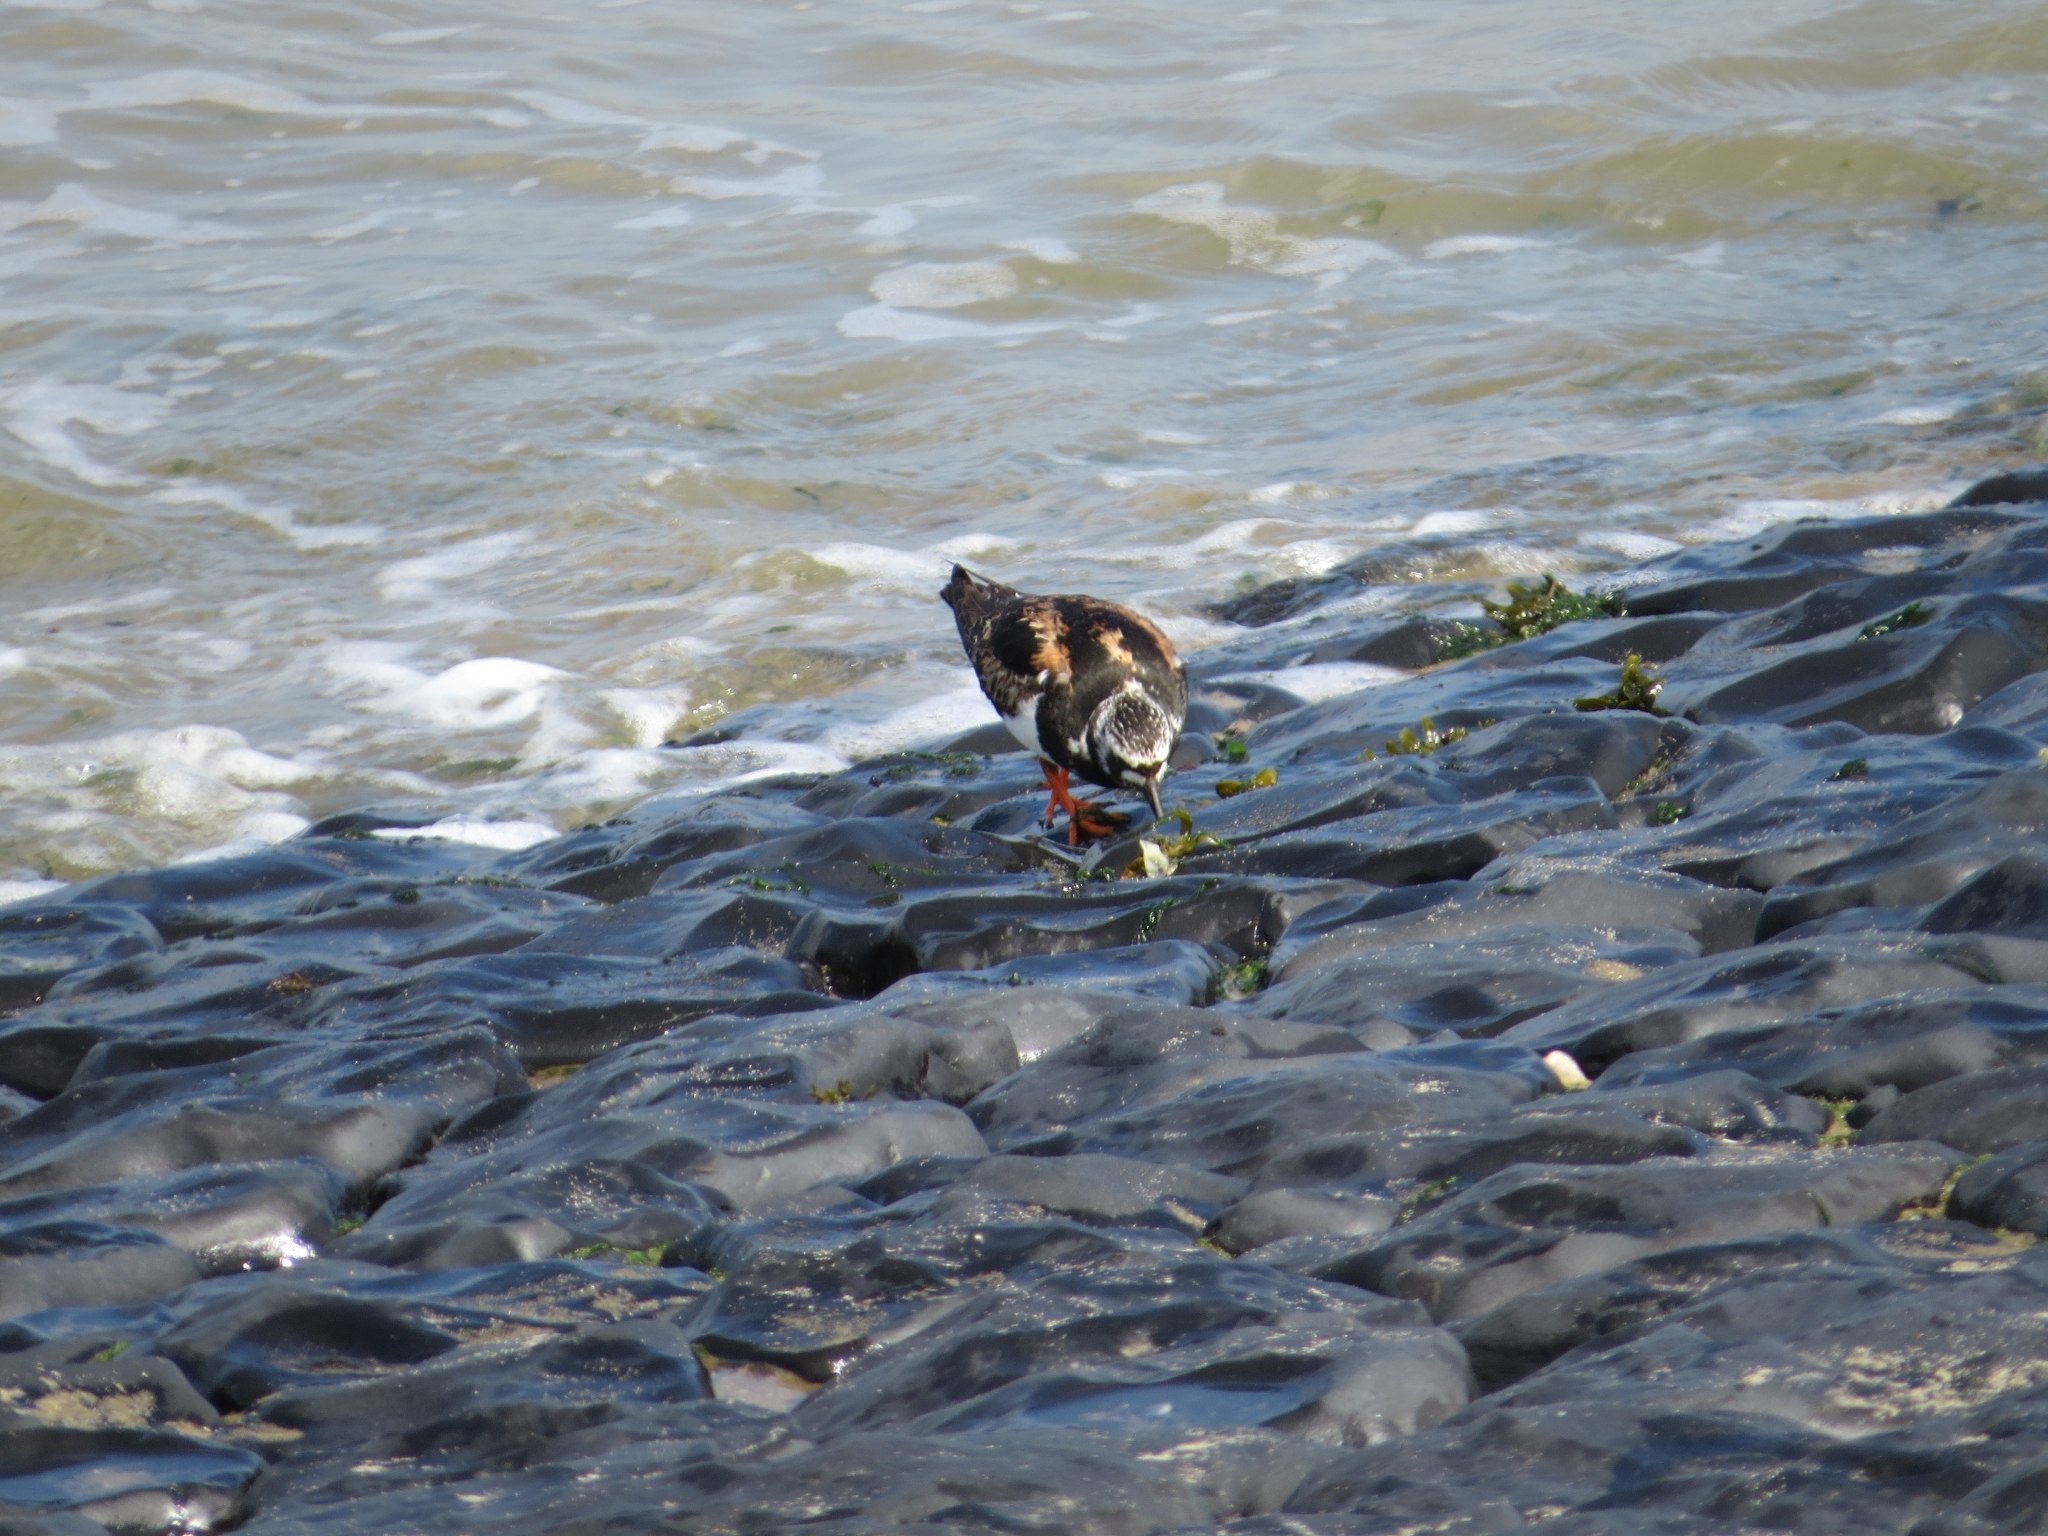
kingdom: Animalia
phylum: Chordata
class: Aves
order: Charadriiformes
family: Scolopacidae
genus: Arenaria
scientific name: Arenaria interpres
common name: Ruddy turnstone
